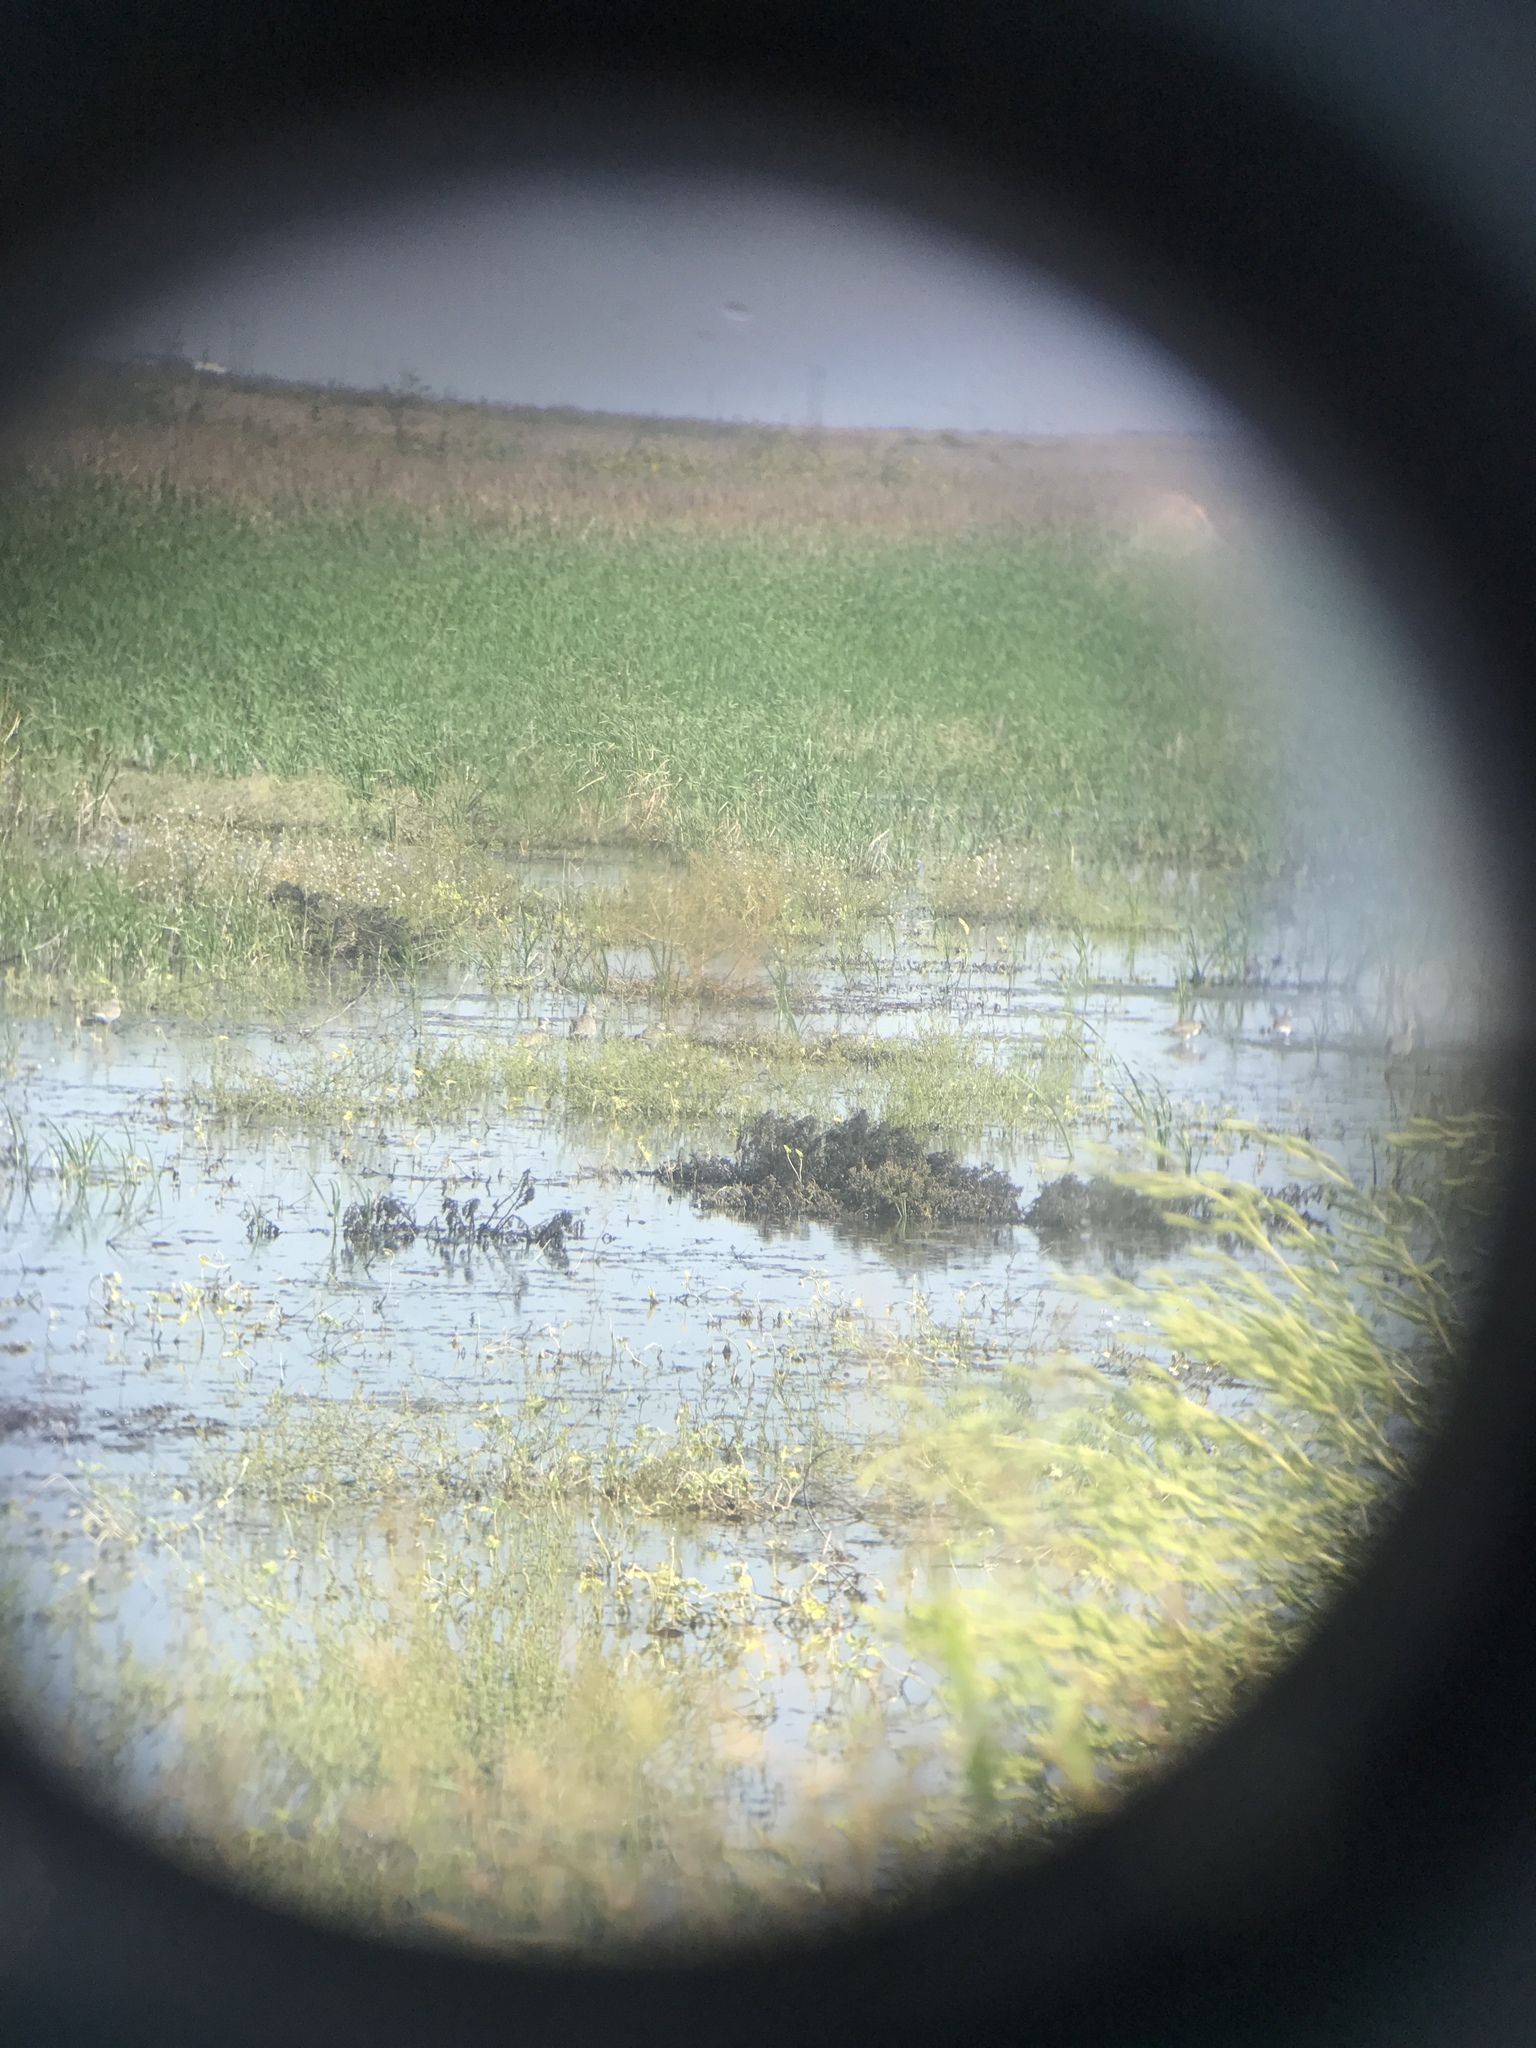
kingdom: Animalia
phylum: Chordata
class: Aves
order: Charadriiformes
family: Scolopacidae
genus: Tringa
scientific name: Tringa melanoleuca
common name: Greater yellowlegs
